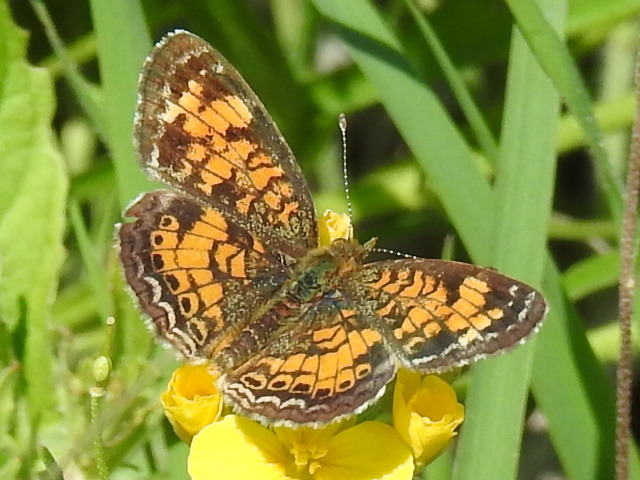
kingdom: Animalia
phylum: Arthropoda
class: Insecta
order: Lepidoptera
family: Nymphalidae
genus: Phyciodes
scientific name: Phyciodes tharos
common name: Pearl crescent
